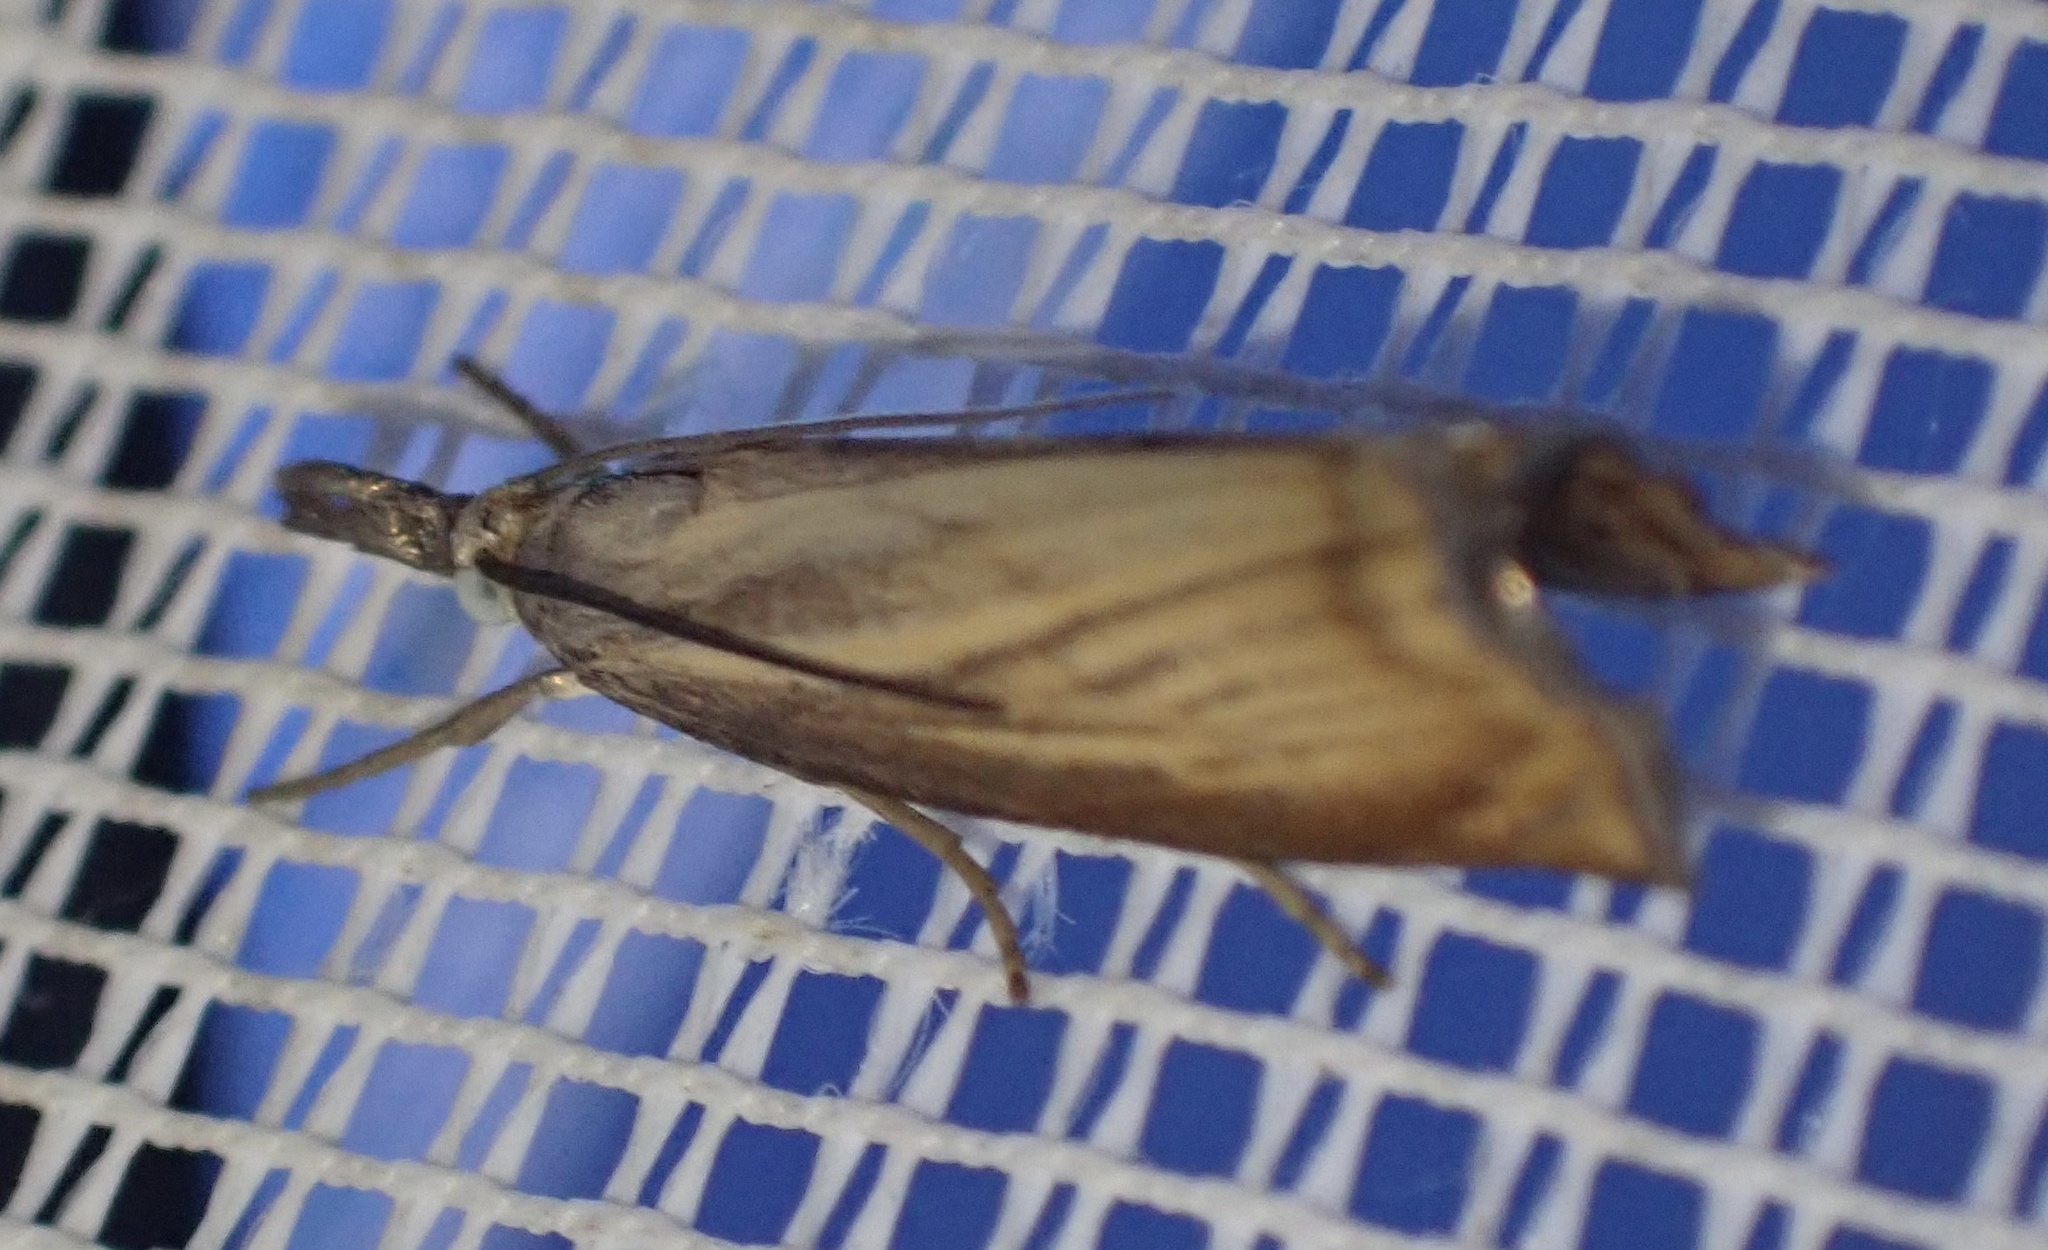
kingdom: Animalia
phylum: Arthropoda
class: Insecta
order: Lepidoptera
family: Crambidae
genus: Chrysoteuchia
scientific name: Chrysoteuchia culmella
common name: Garden grass-veneer
